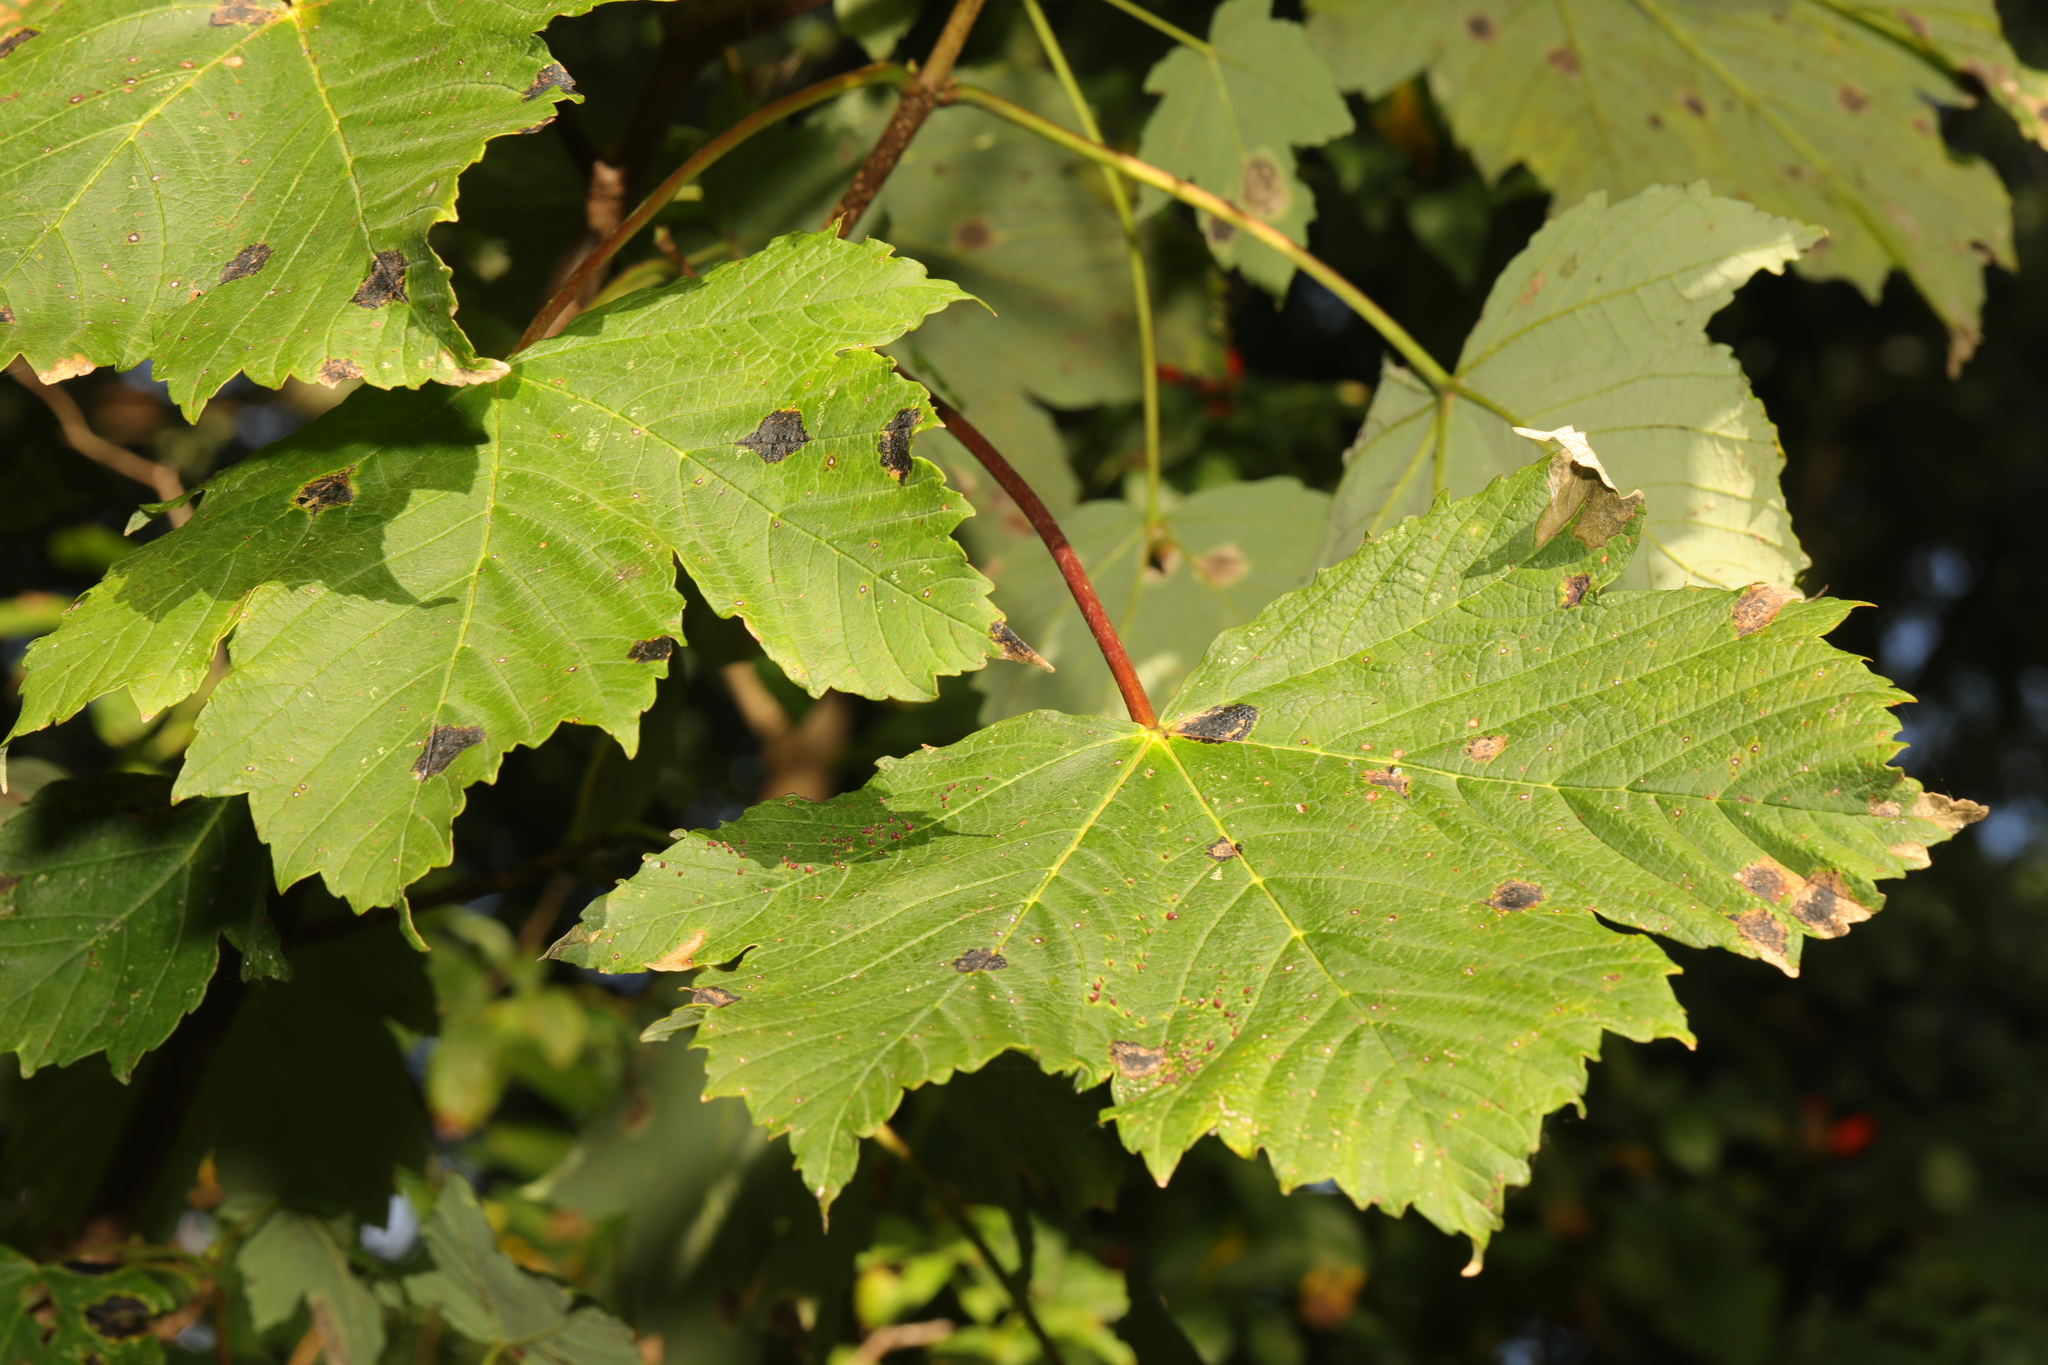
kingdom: Fungi
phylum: Ascomycota
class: Leotiomycetes
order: Rhytismatales
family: Rhytismataceae
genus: Rhytisma
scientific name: Rhytisma acerinum
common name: European tar spot
